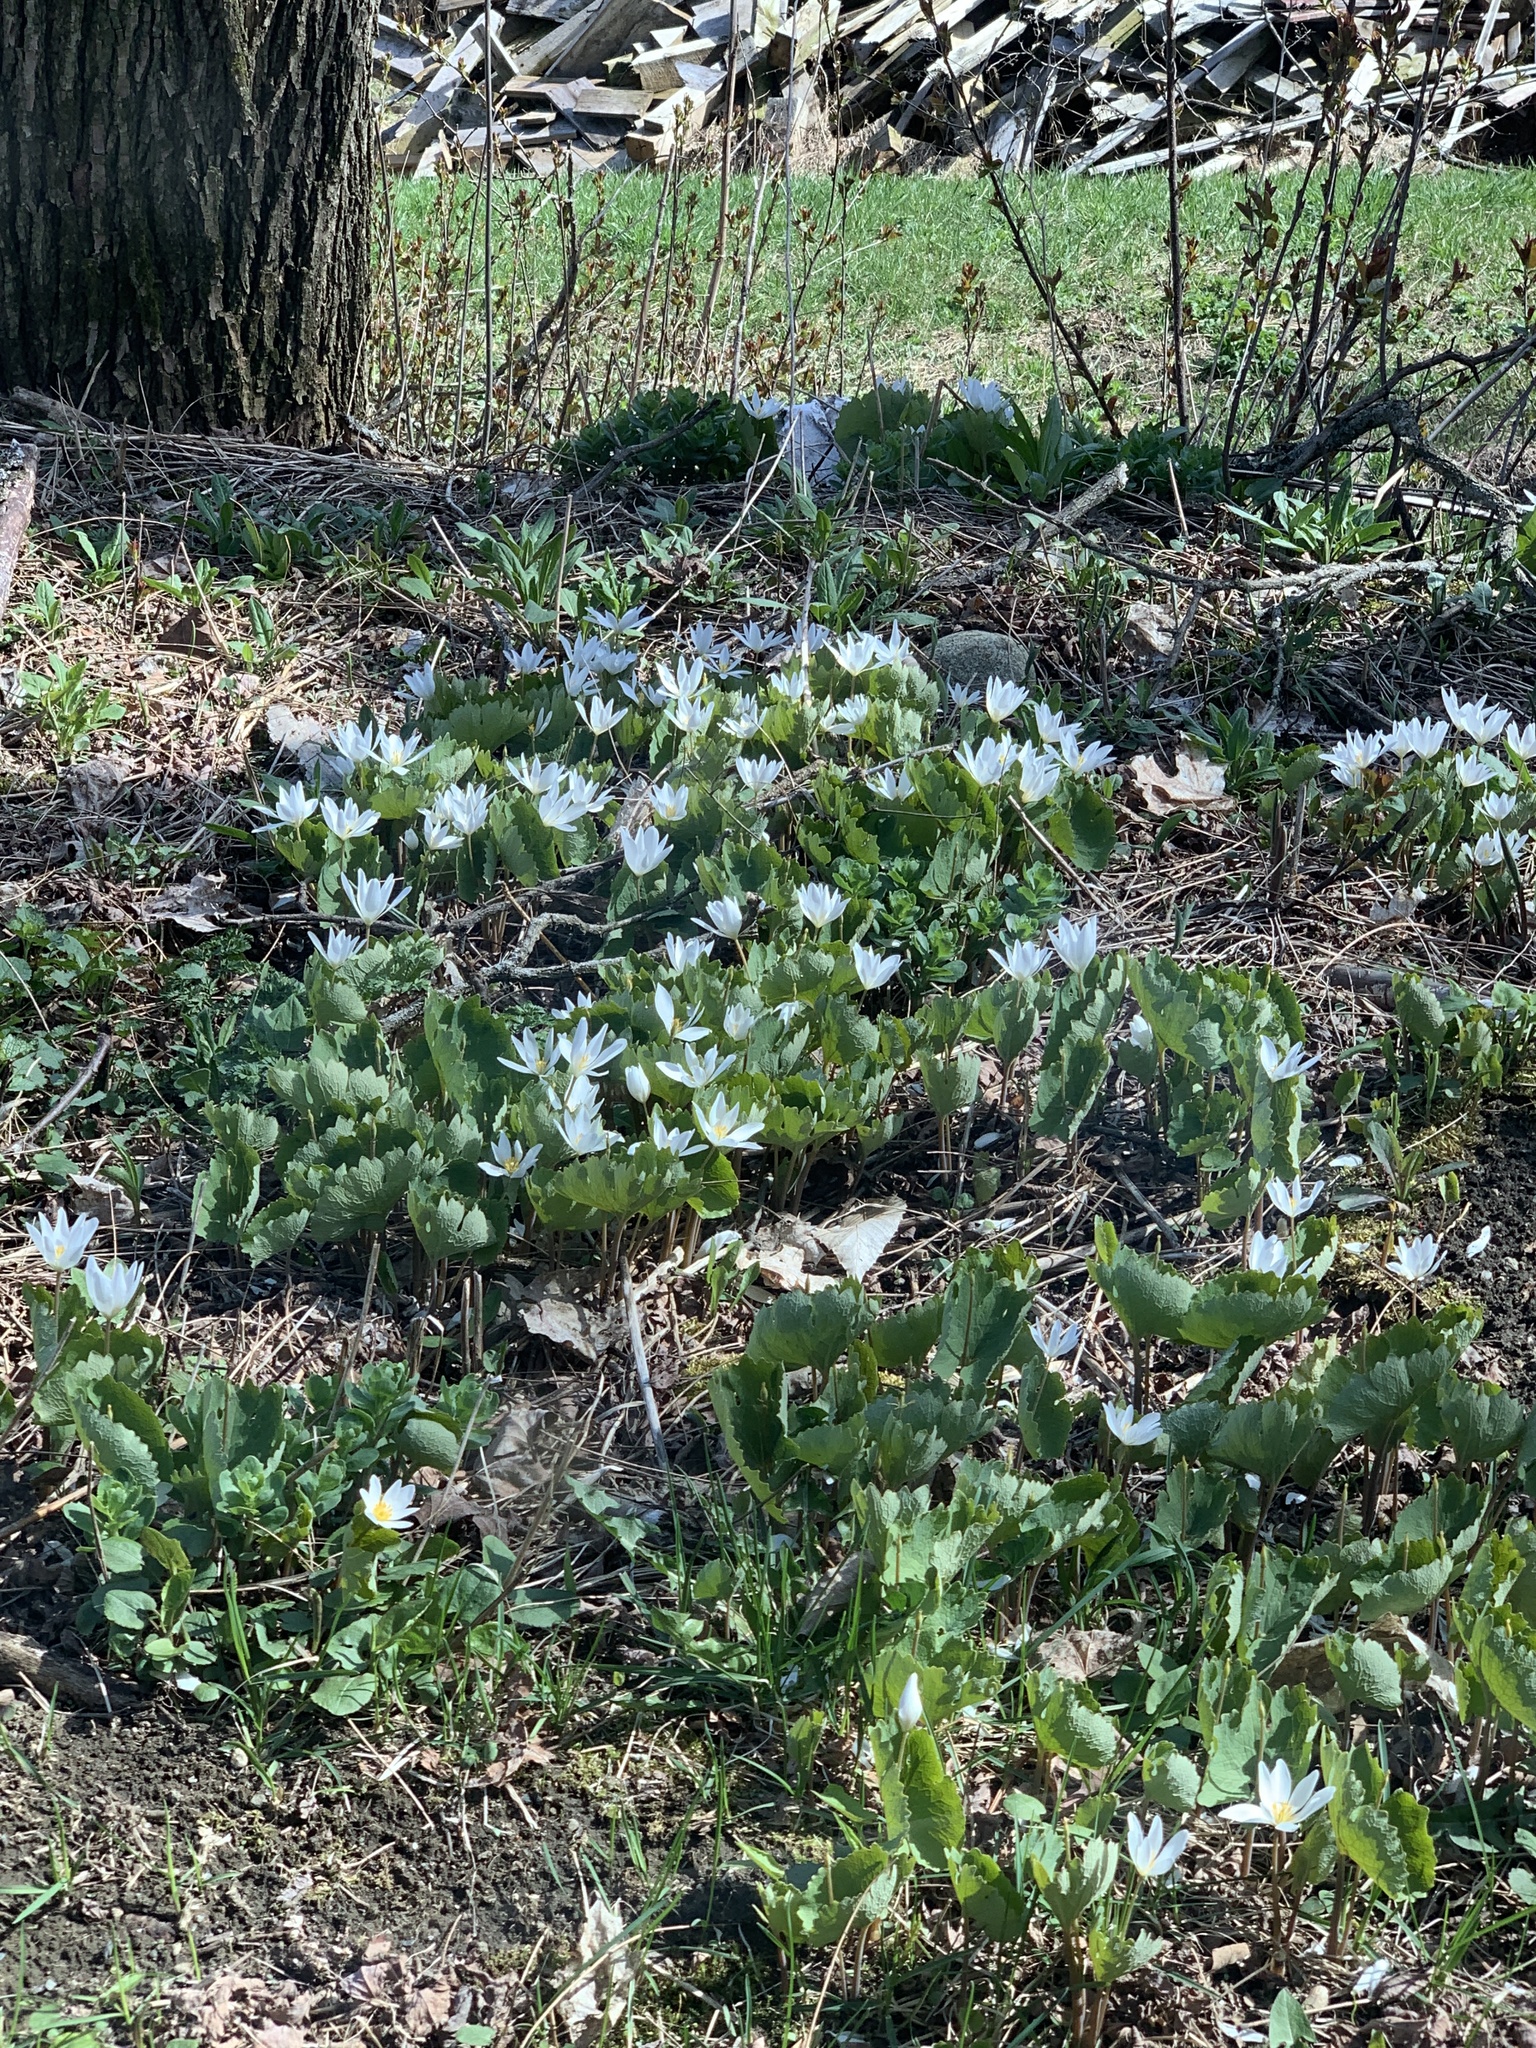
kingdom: Plantae
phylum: Tracheophyta
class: Magnoliopsida
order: Ranunculales
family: Papaveraceae
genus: Sanguinaria
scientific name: Sanguinaria canadensis
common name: Bloodroot
